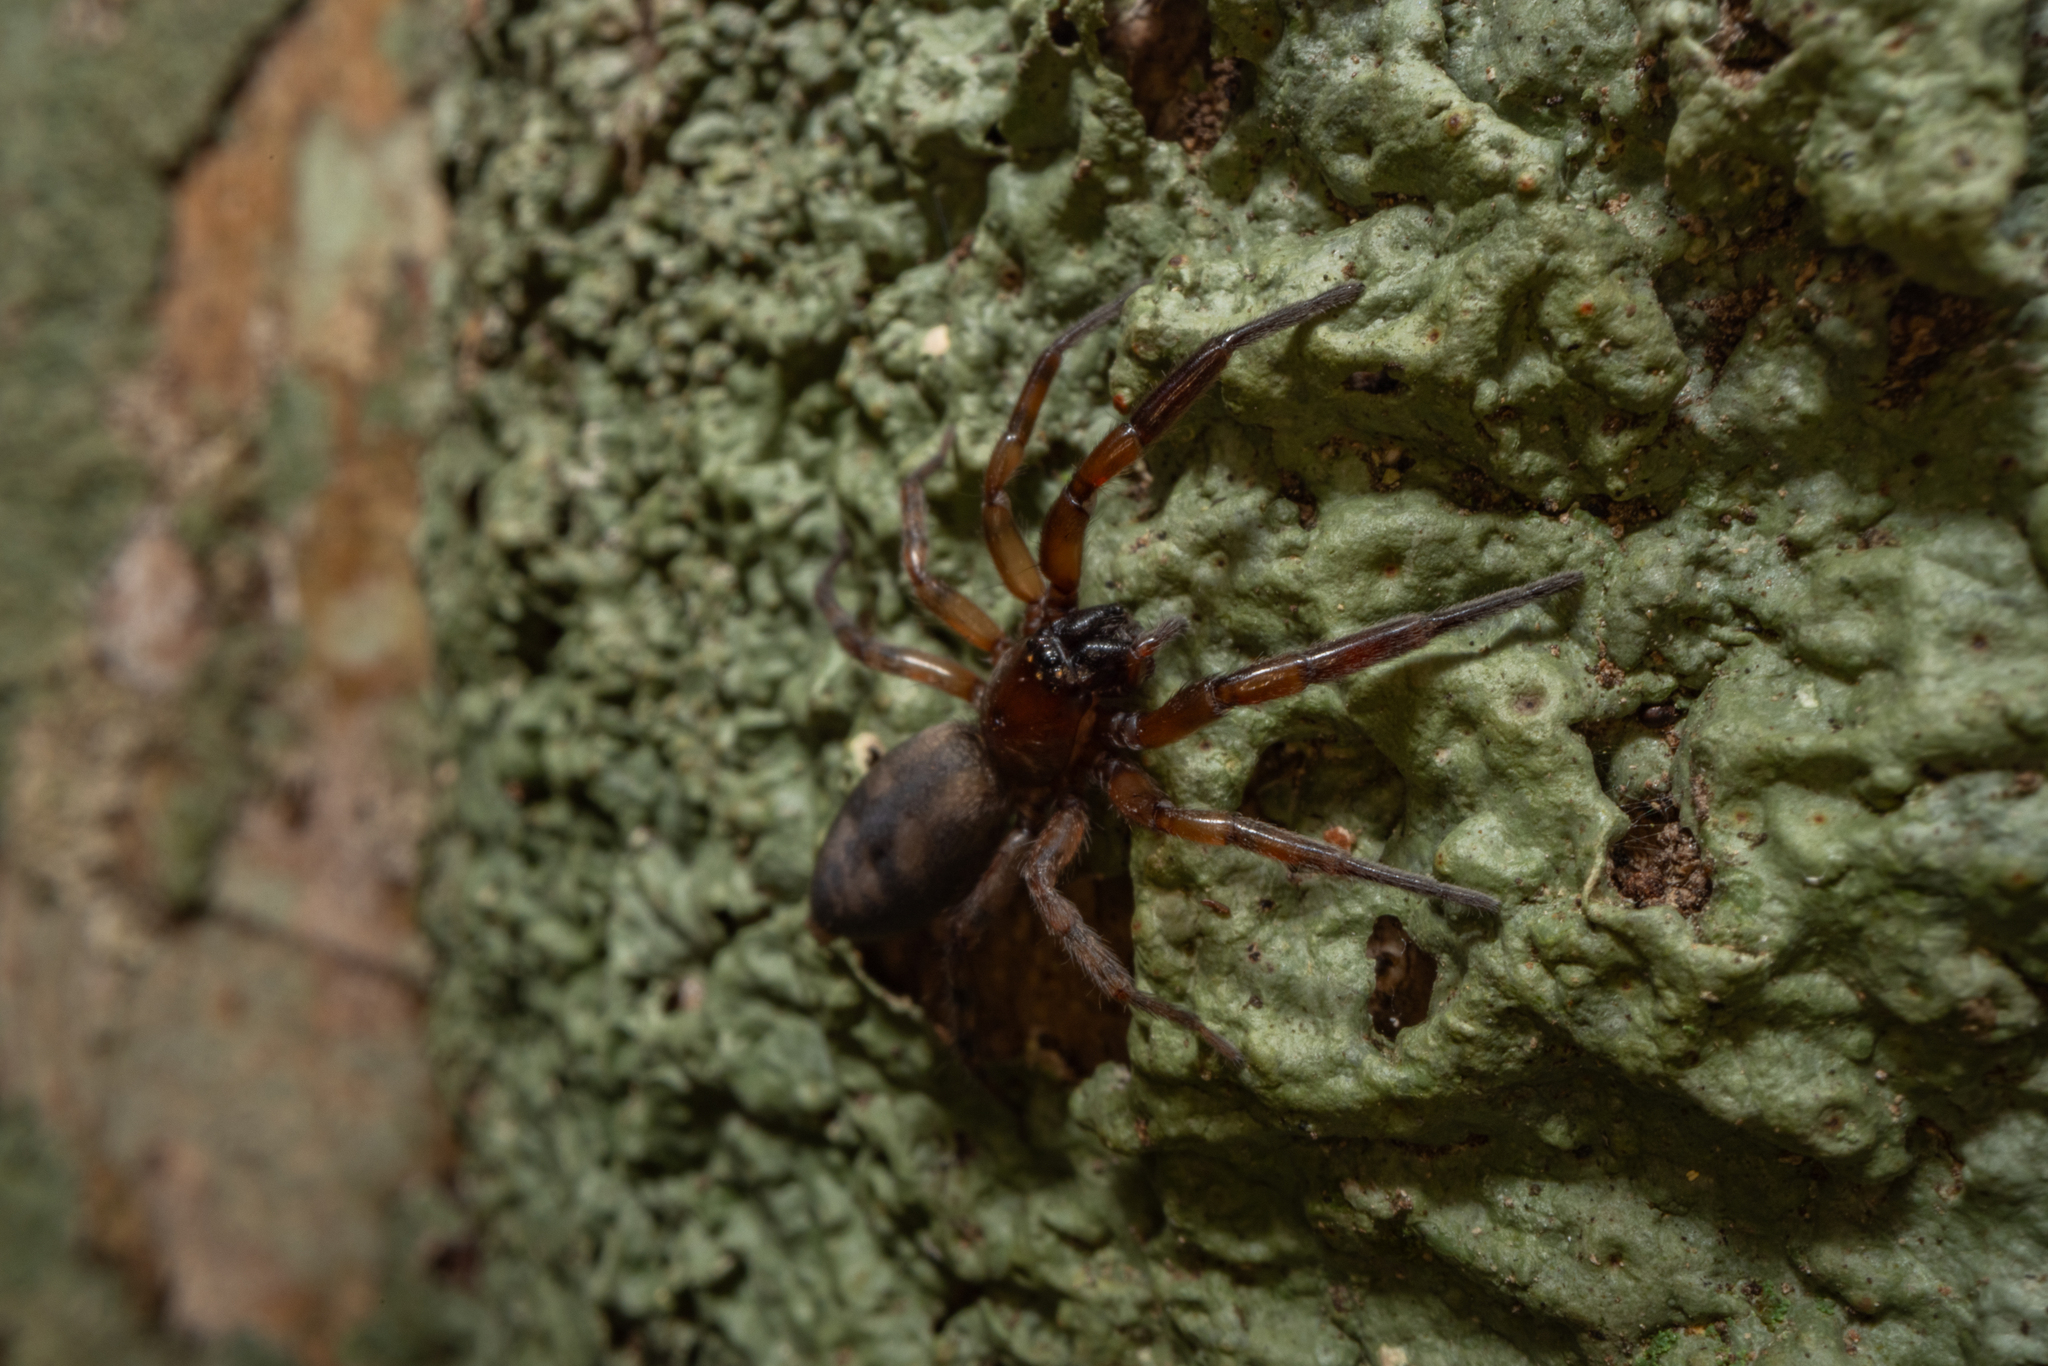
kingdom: Animalia
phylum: Arthropoda
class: Arachnida
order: Araneae
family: Gnaphosidae
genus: Intruda
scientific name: Intruda signata
